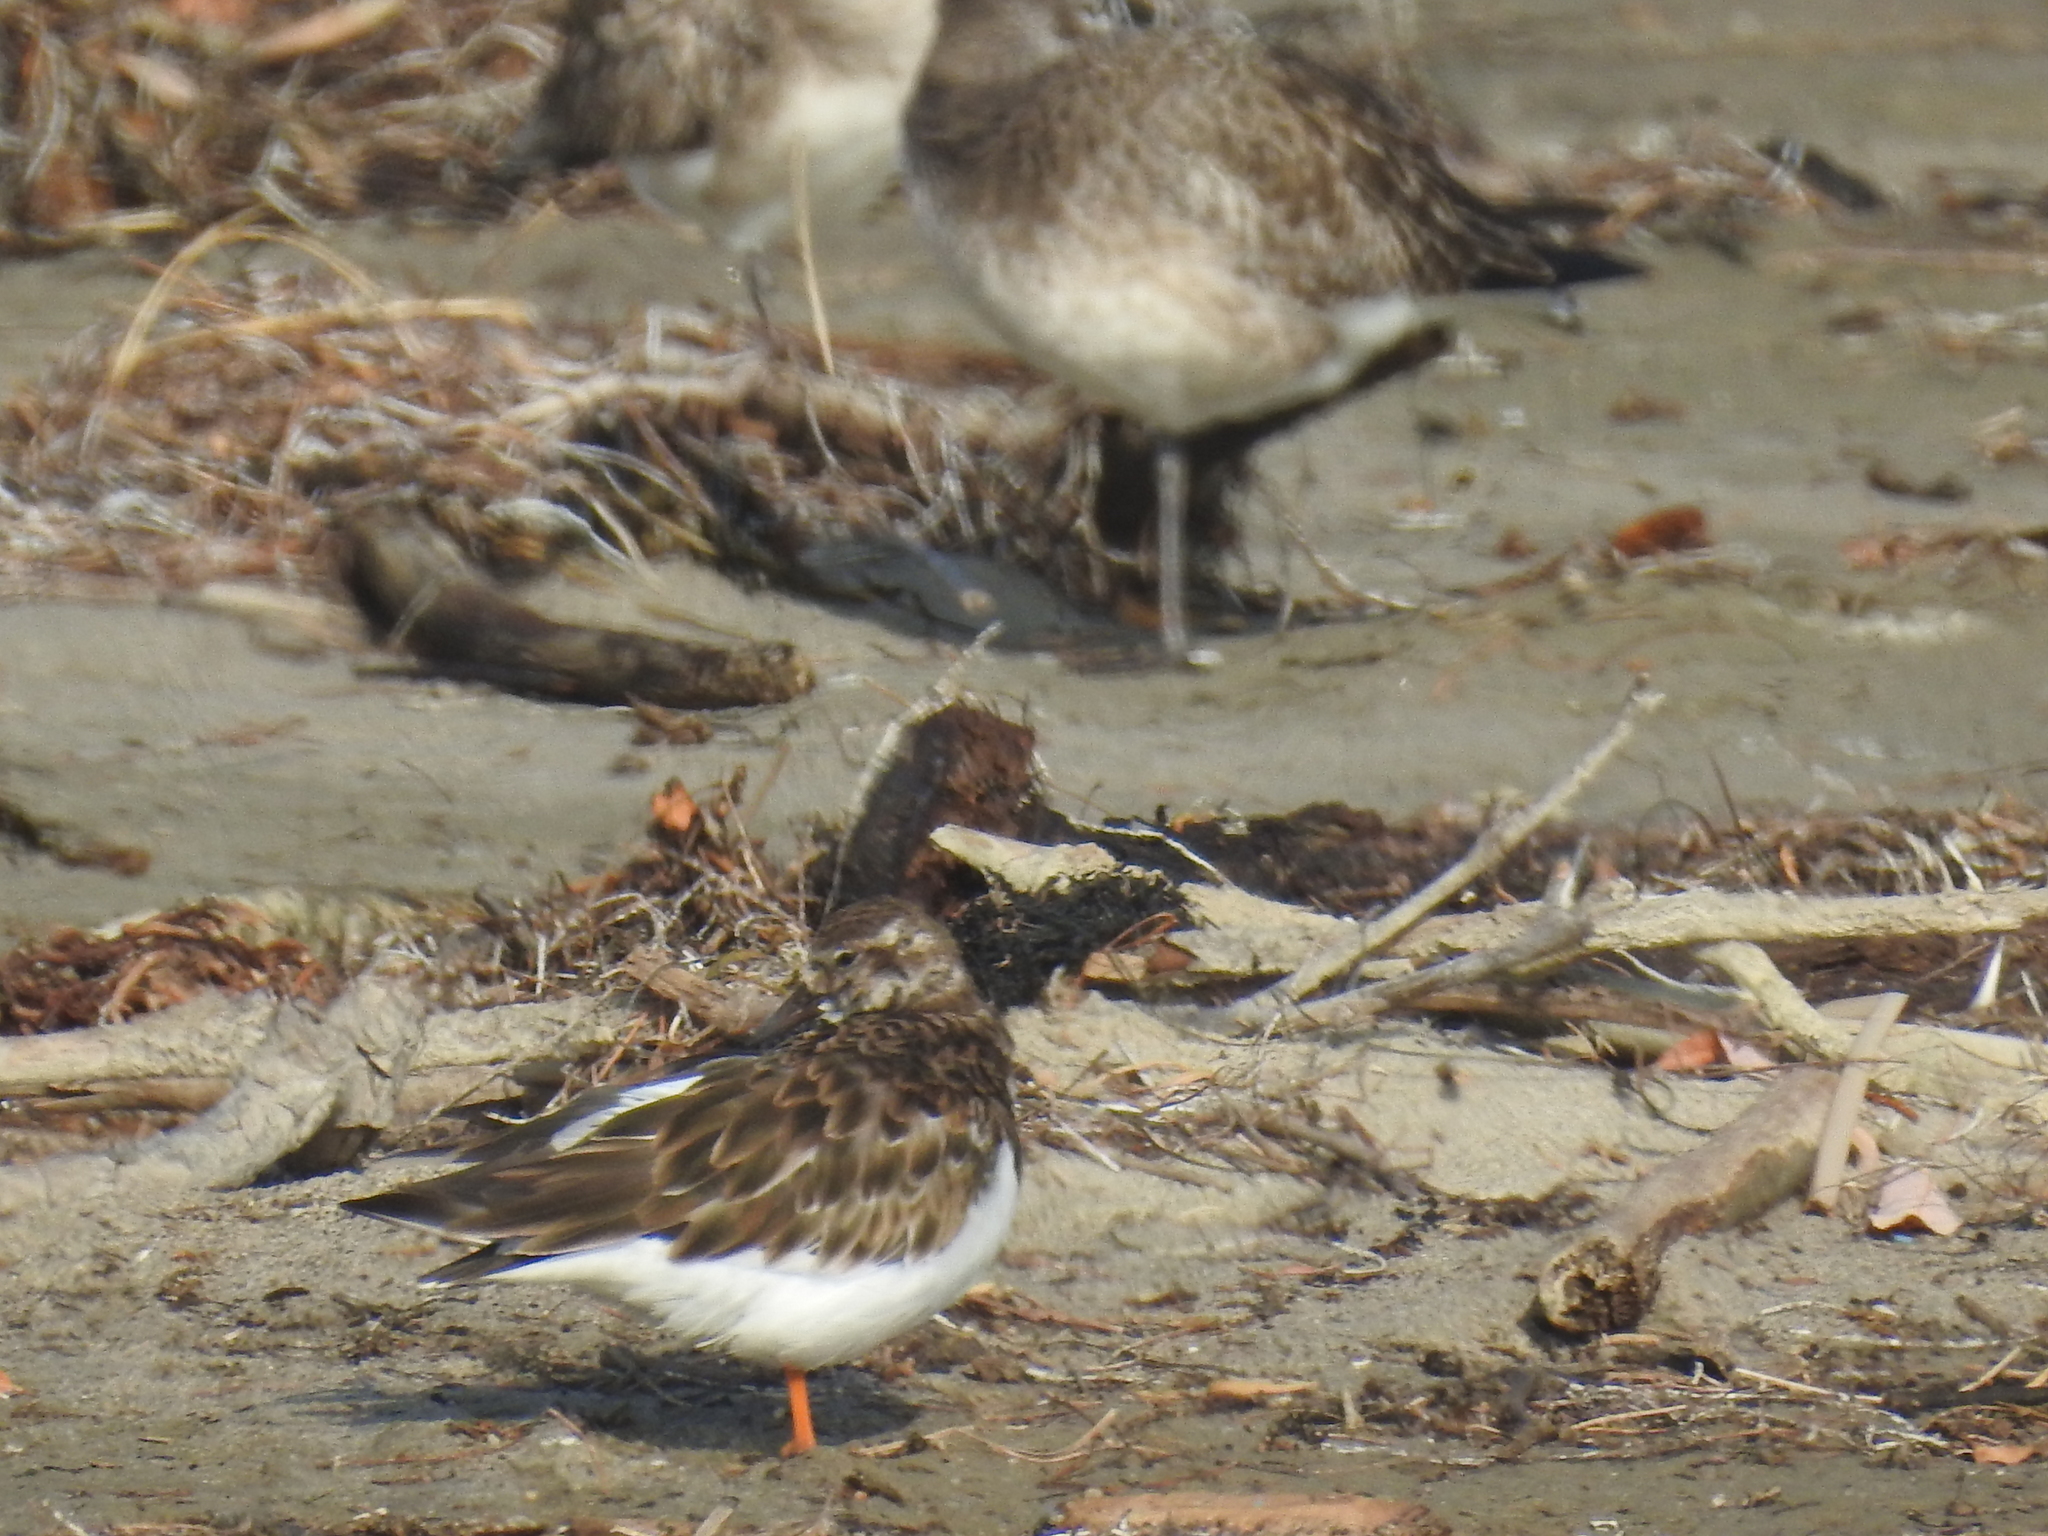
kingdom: Animalia
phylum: Chordata
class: Aves
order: Charadriiformes
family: Scolopacidae
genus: Arenaria
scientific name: Arenaria interpres
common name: Ruddy turnstone
